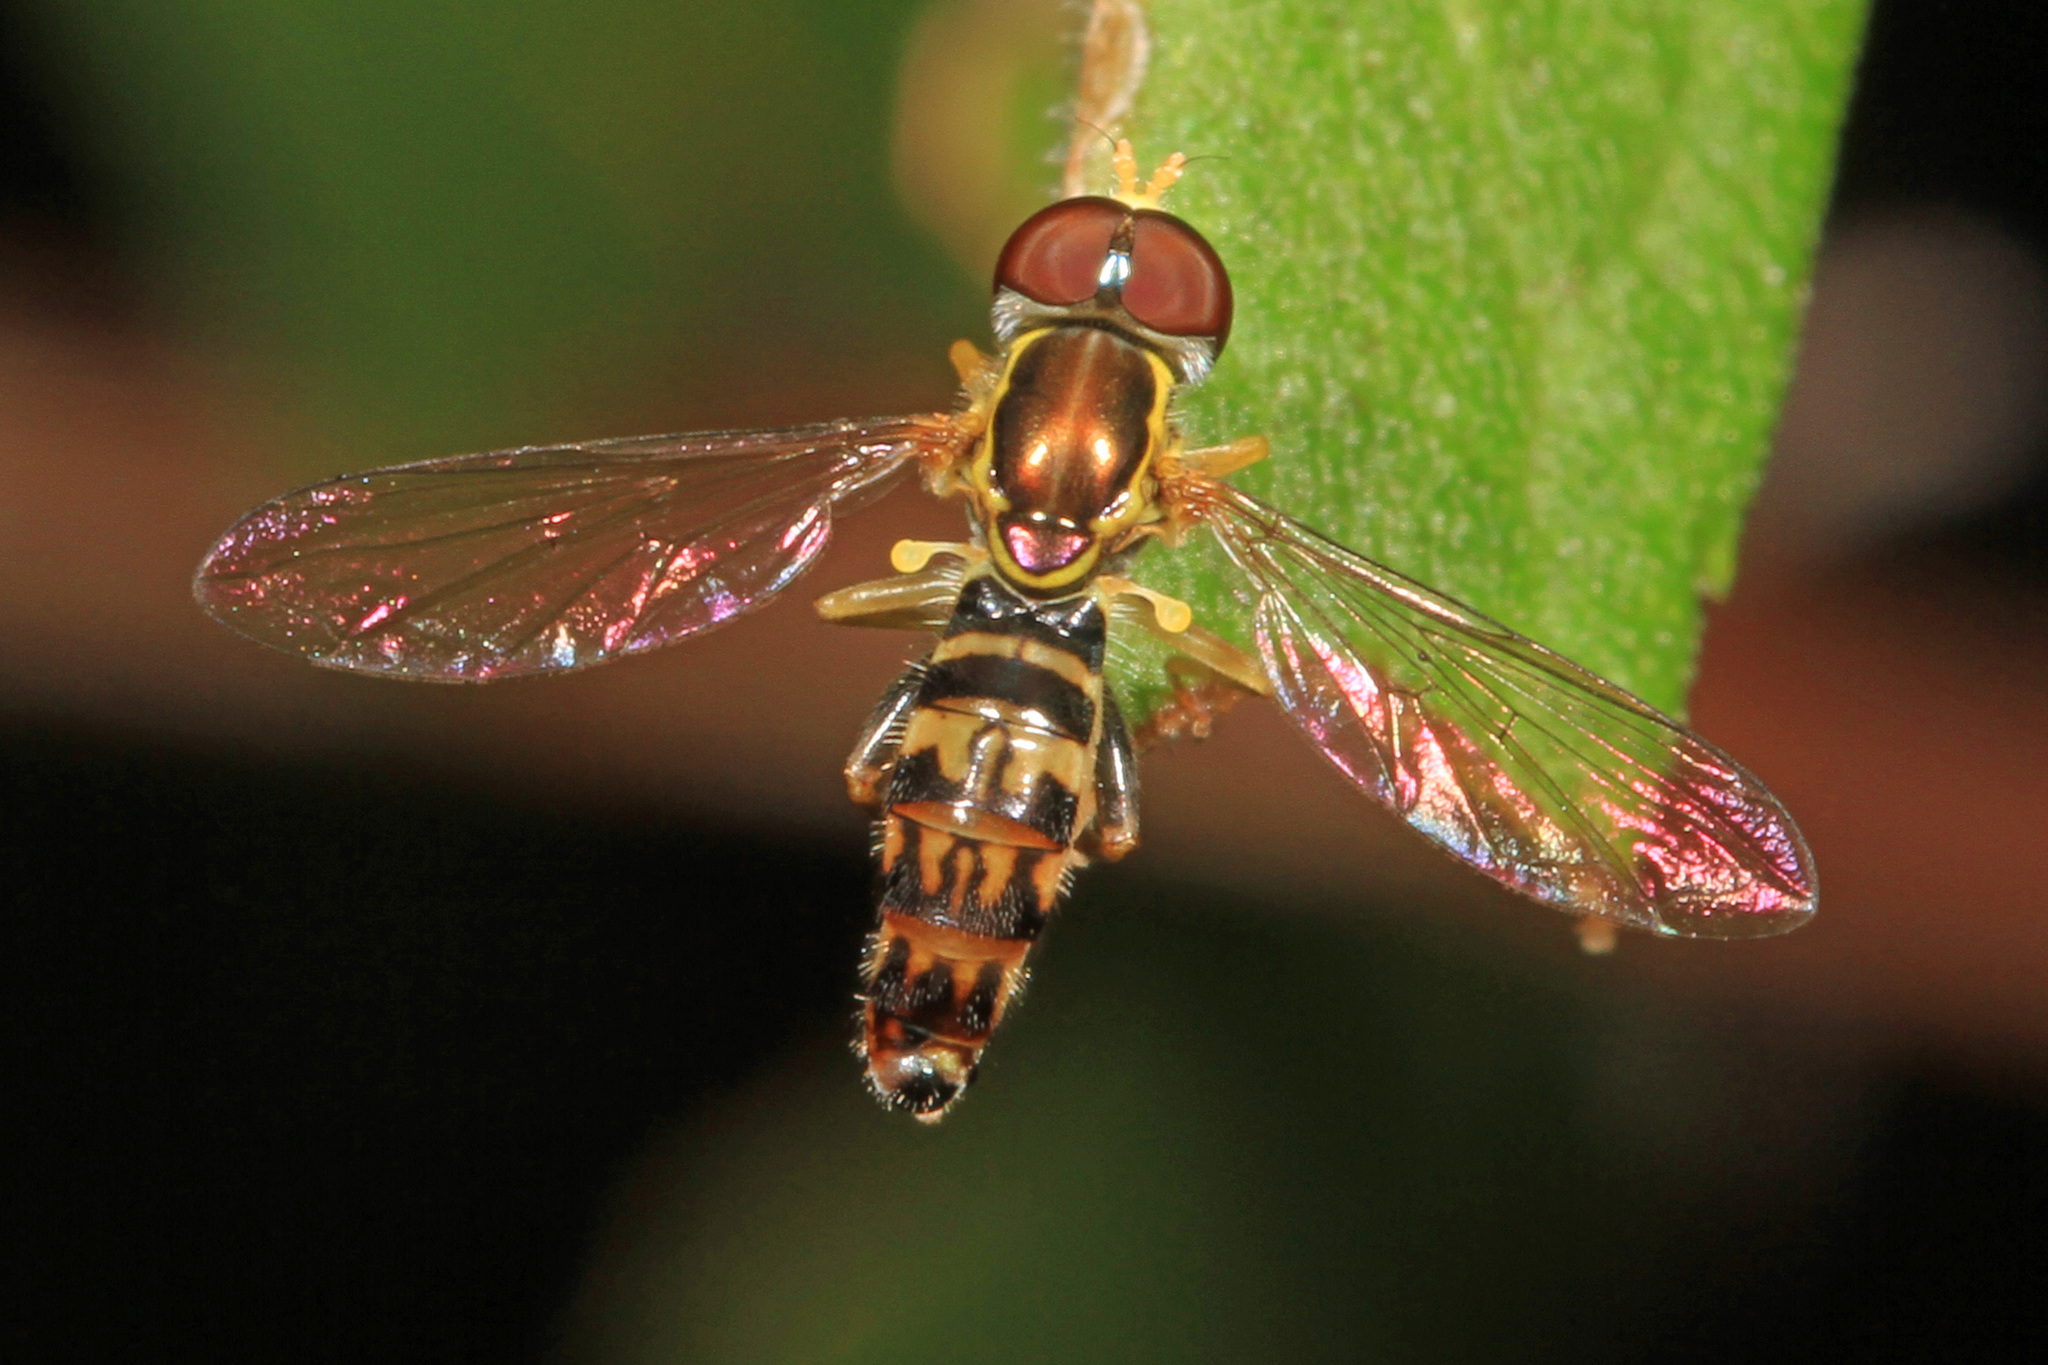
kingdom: Animalia
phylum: Arthropoda
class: Insecta
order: Diptera
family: Syrphidae
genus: Toxomerus
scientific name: Toxomerus geminatus
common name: Eastern calligrapher
